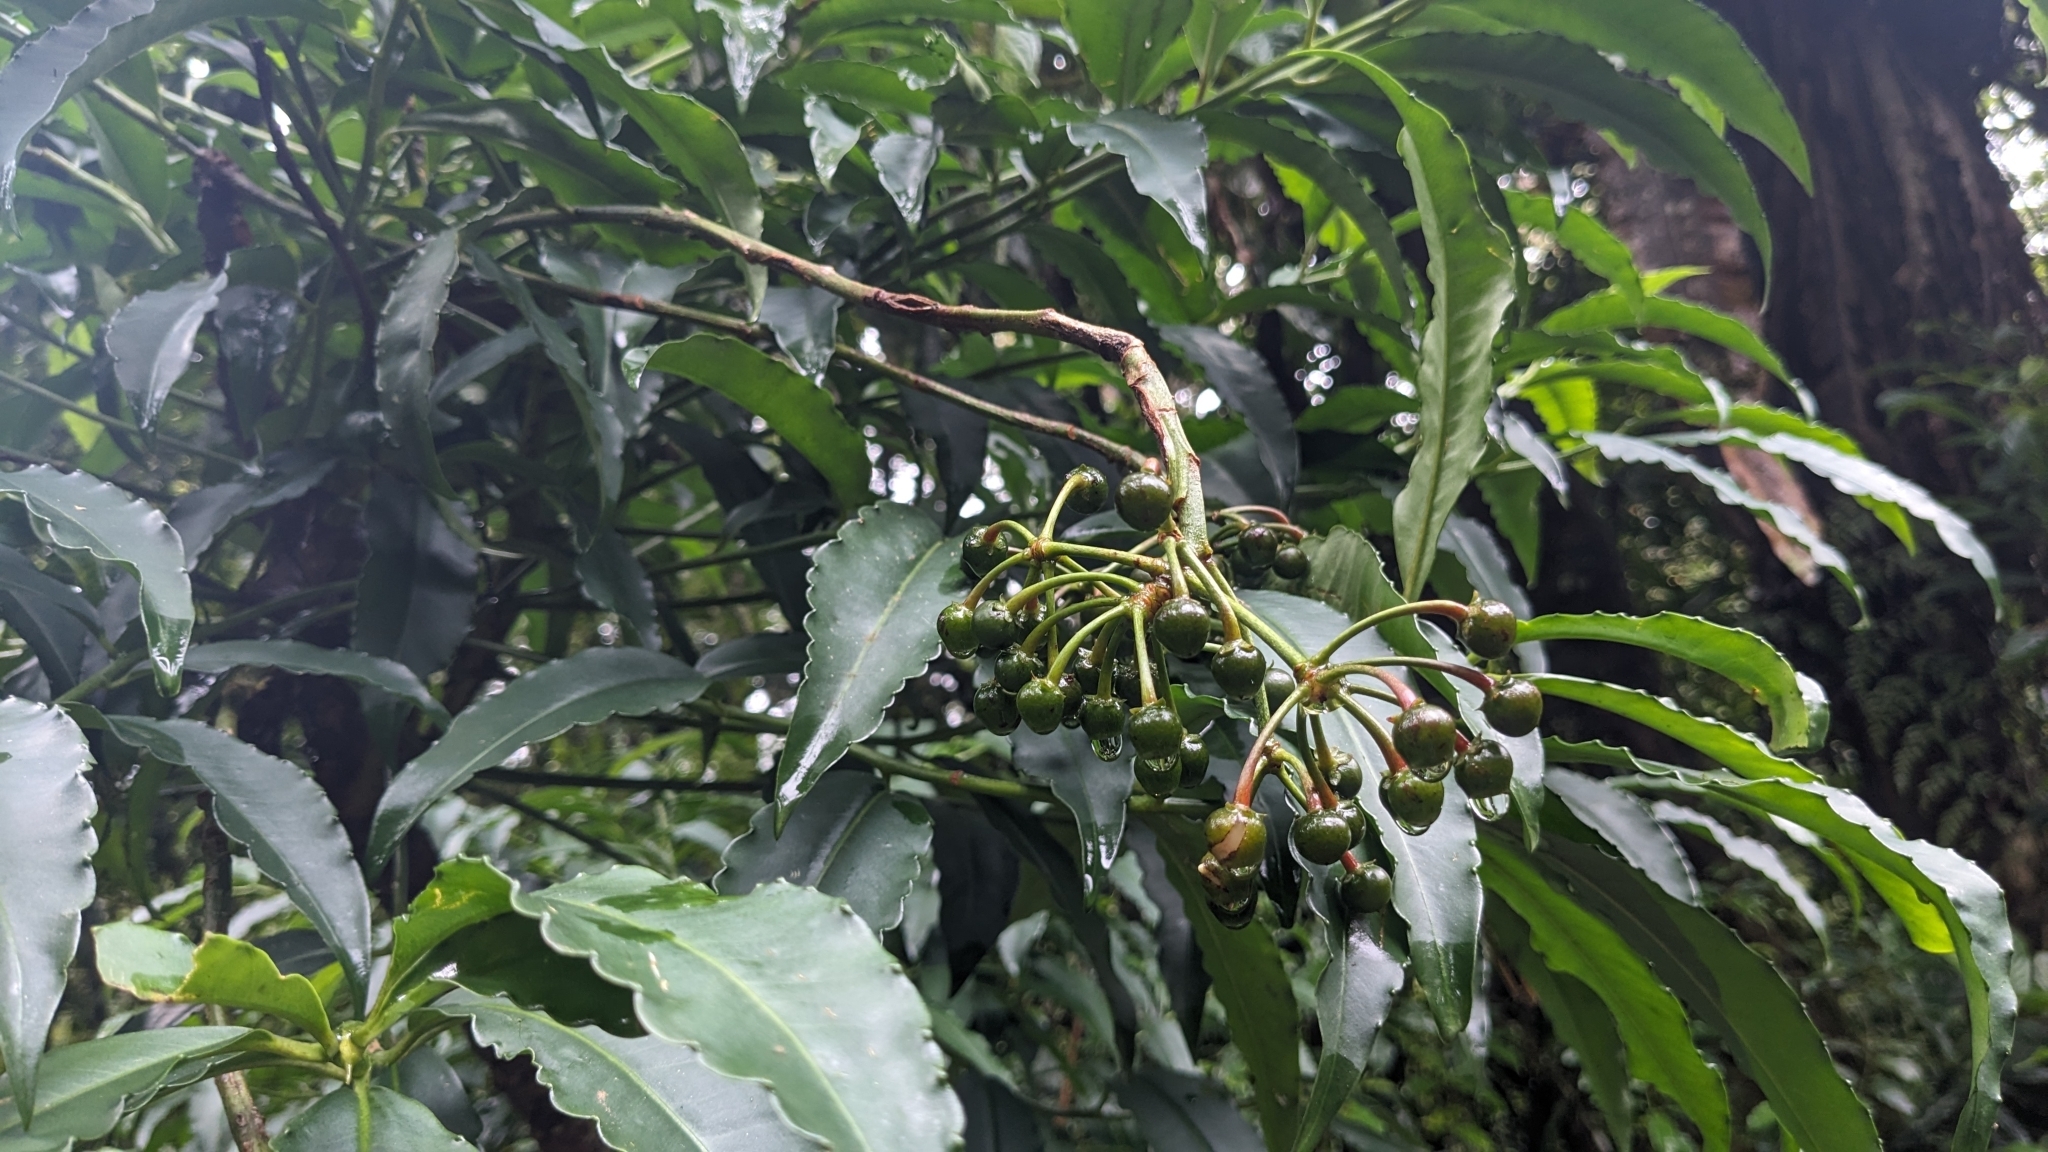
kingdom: Plantae
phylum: Tracheophyta
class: Magnoliopsida
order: Ericales
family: Primulaceae
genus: Ardisia
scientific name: Ardisia polysticta
